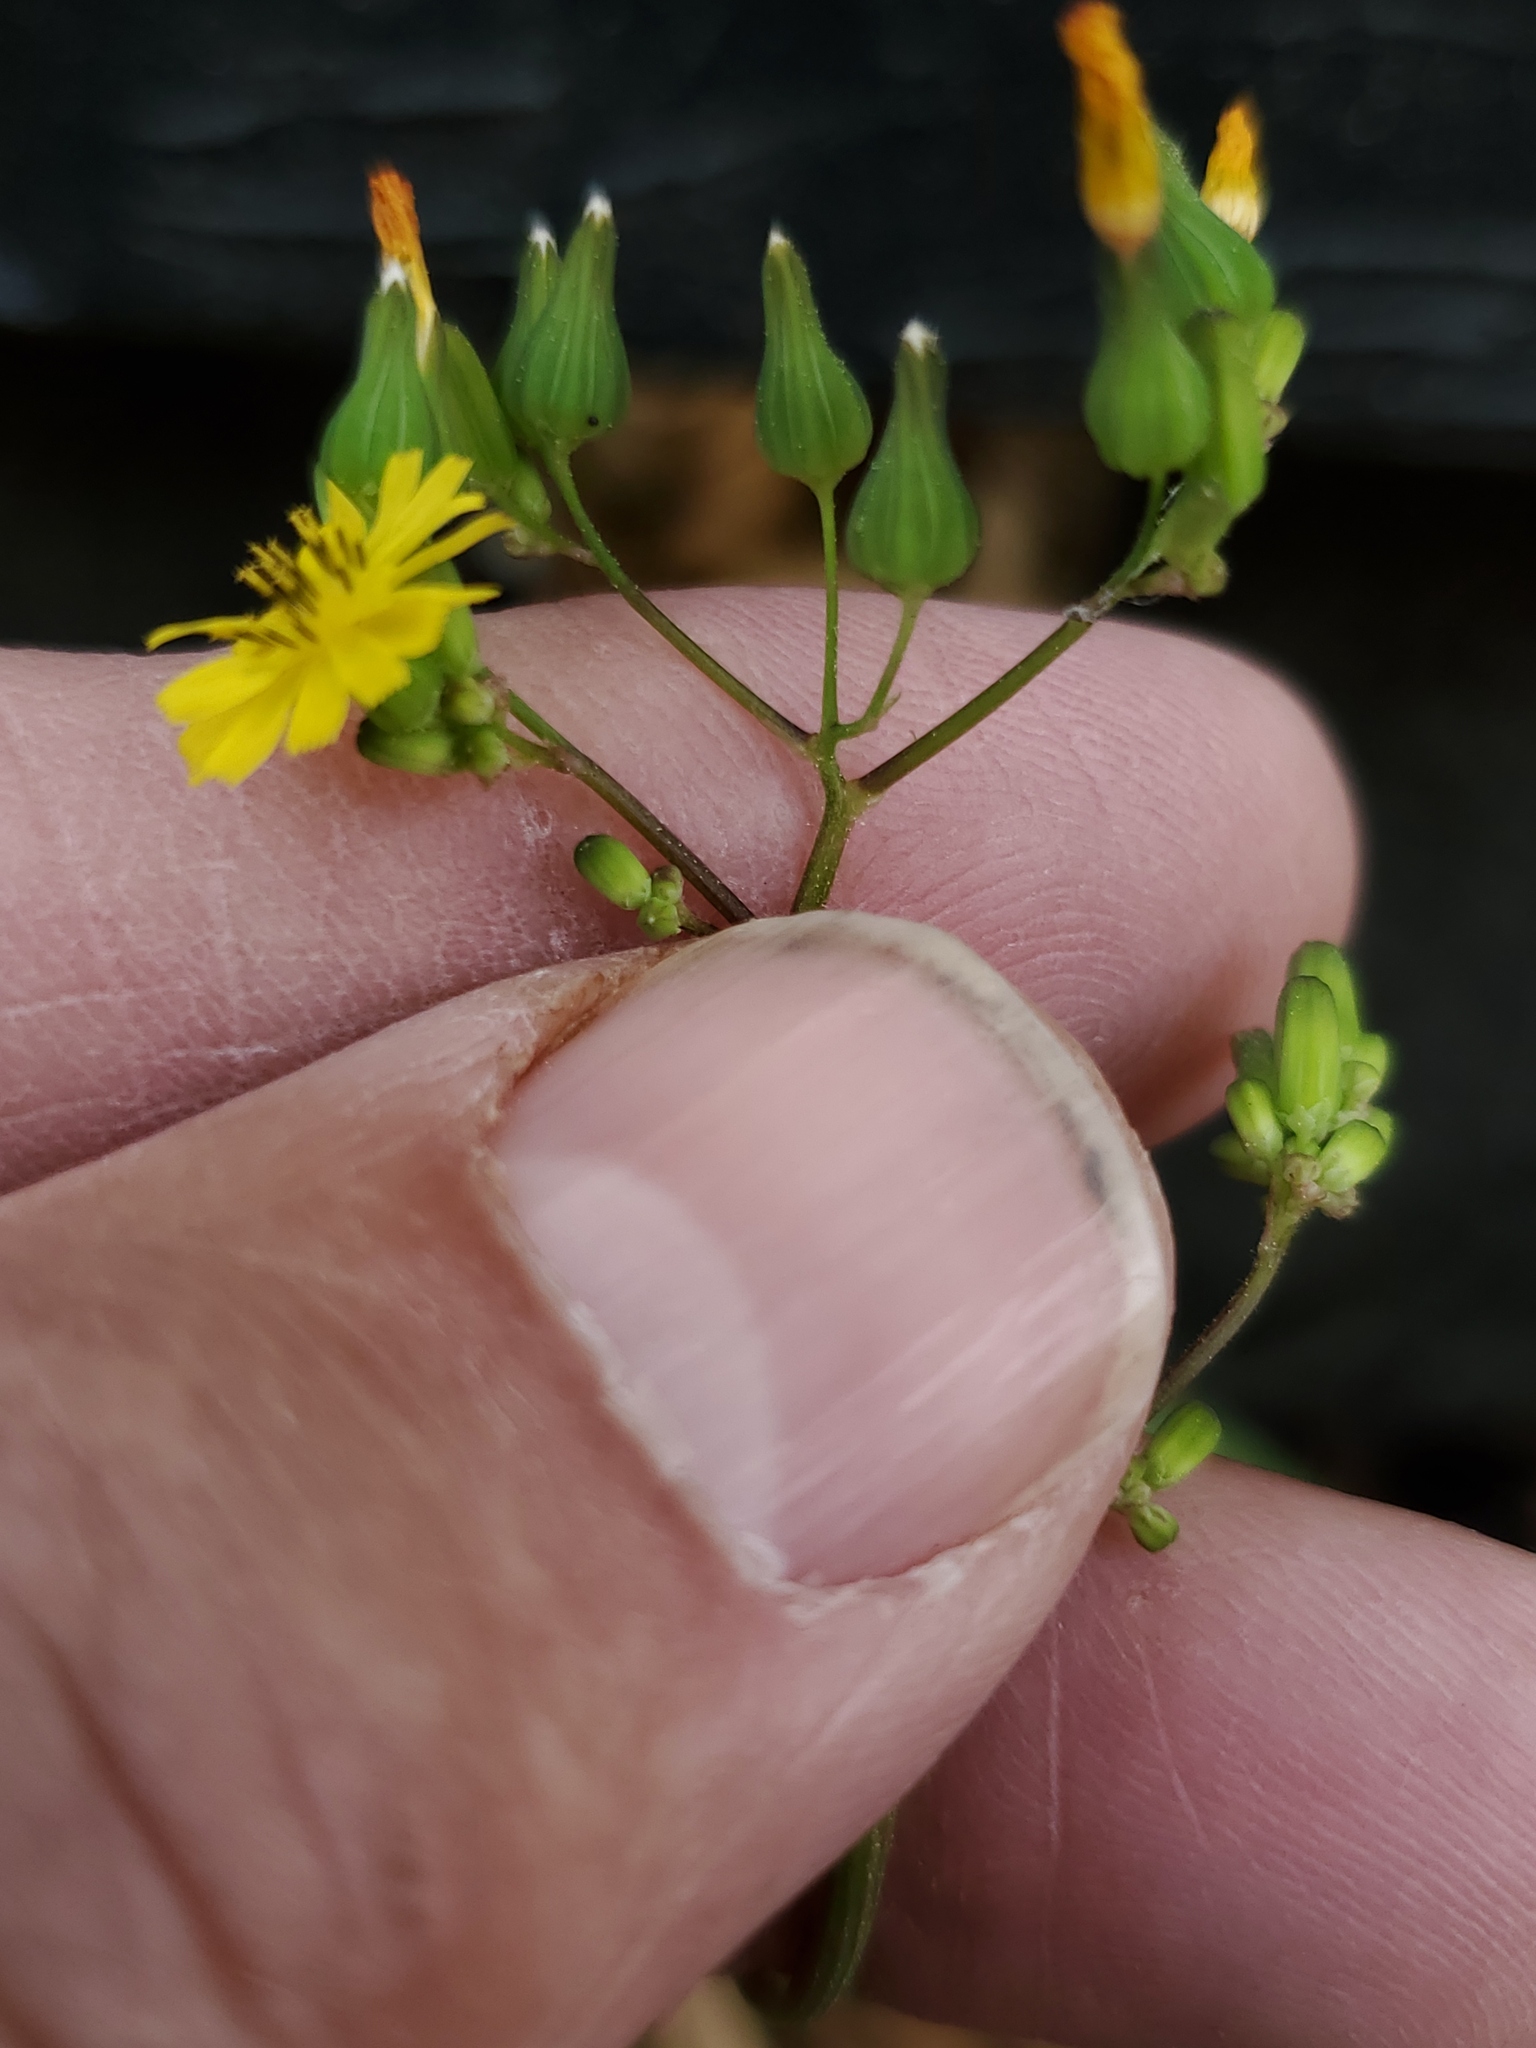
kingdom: Plantae
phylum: Tracheophyta
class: Magnoliopsida
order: Asterales
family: Asteraceae
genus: Youngia
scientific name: Youngia japonica
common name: Oriental false hawksbeard
